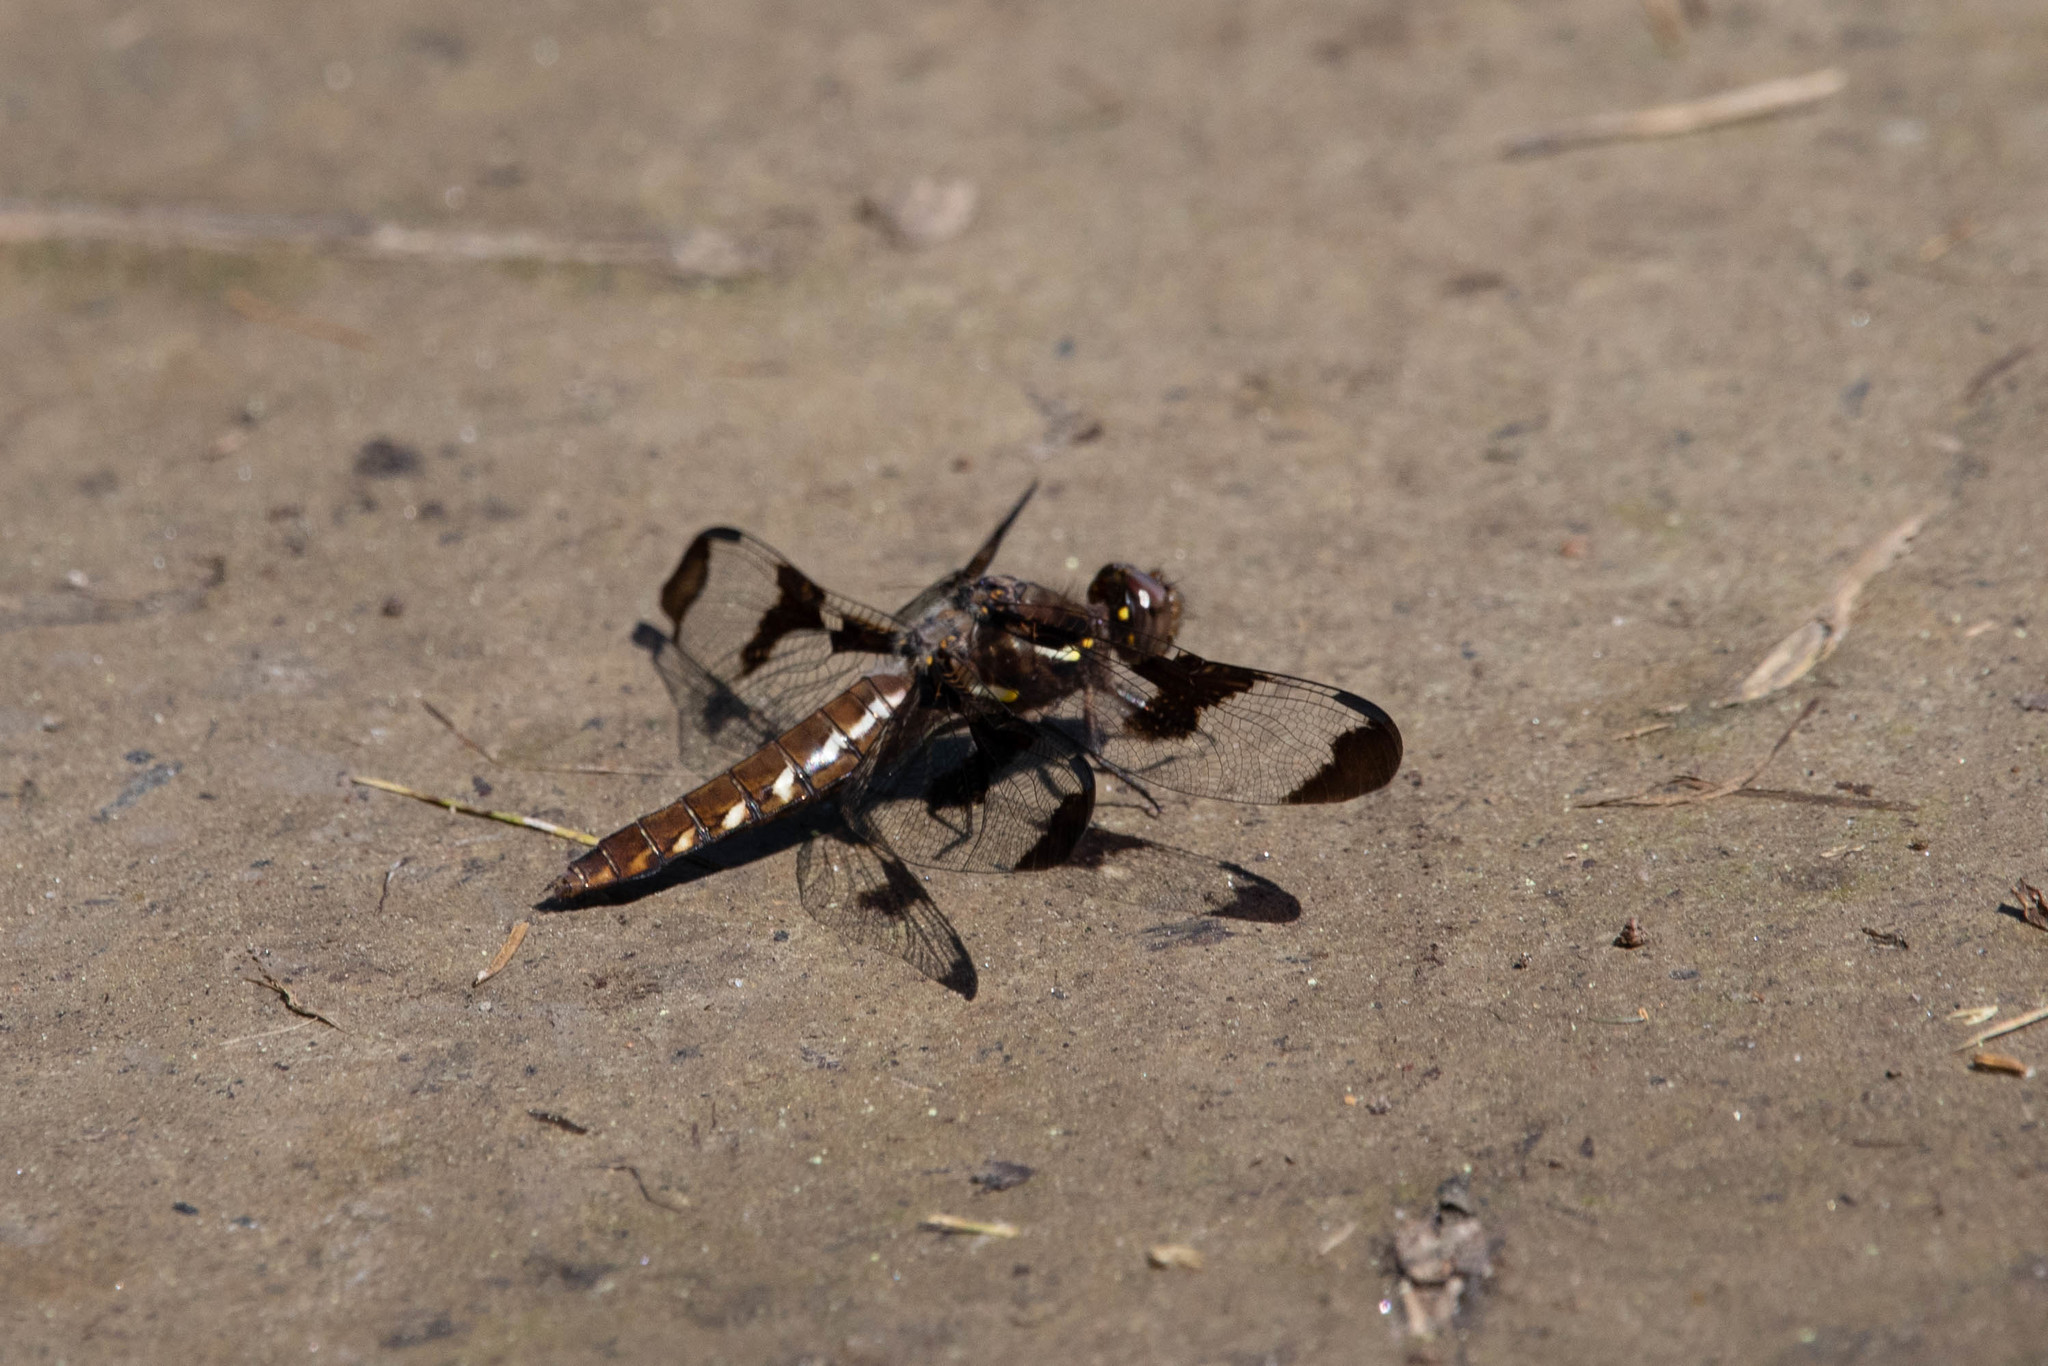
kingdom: Animalia
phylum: Arthropoda
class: Insecta
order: Odonata
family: Libellulidae
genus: Plathemis
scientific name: Plathemis lydia
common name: Common whitetail
